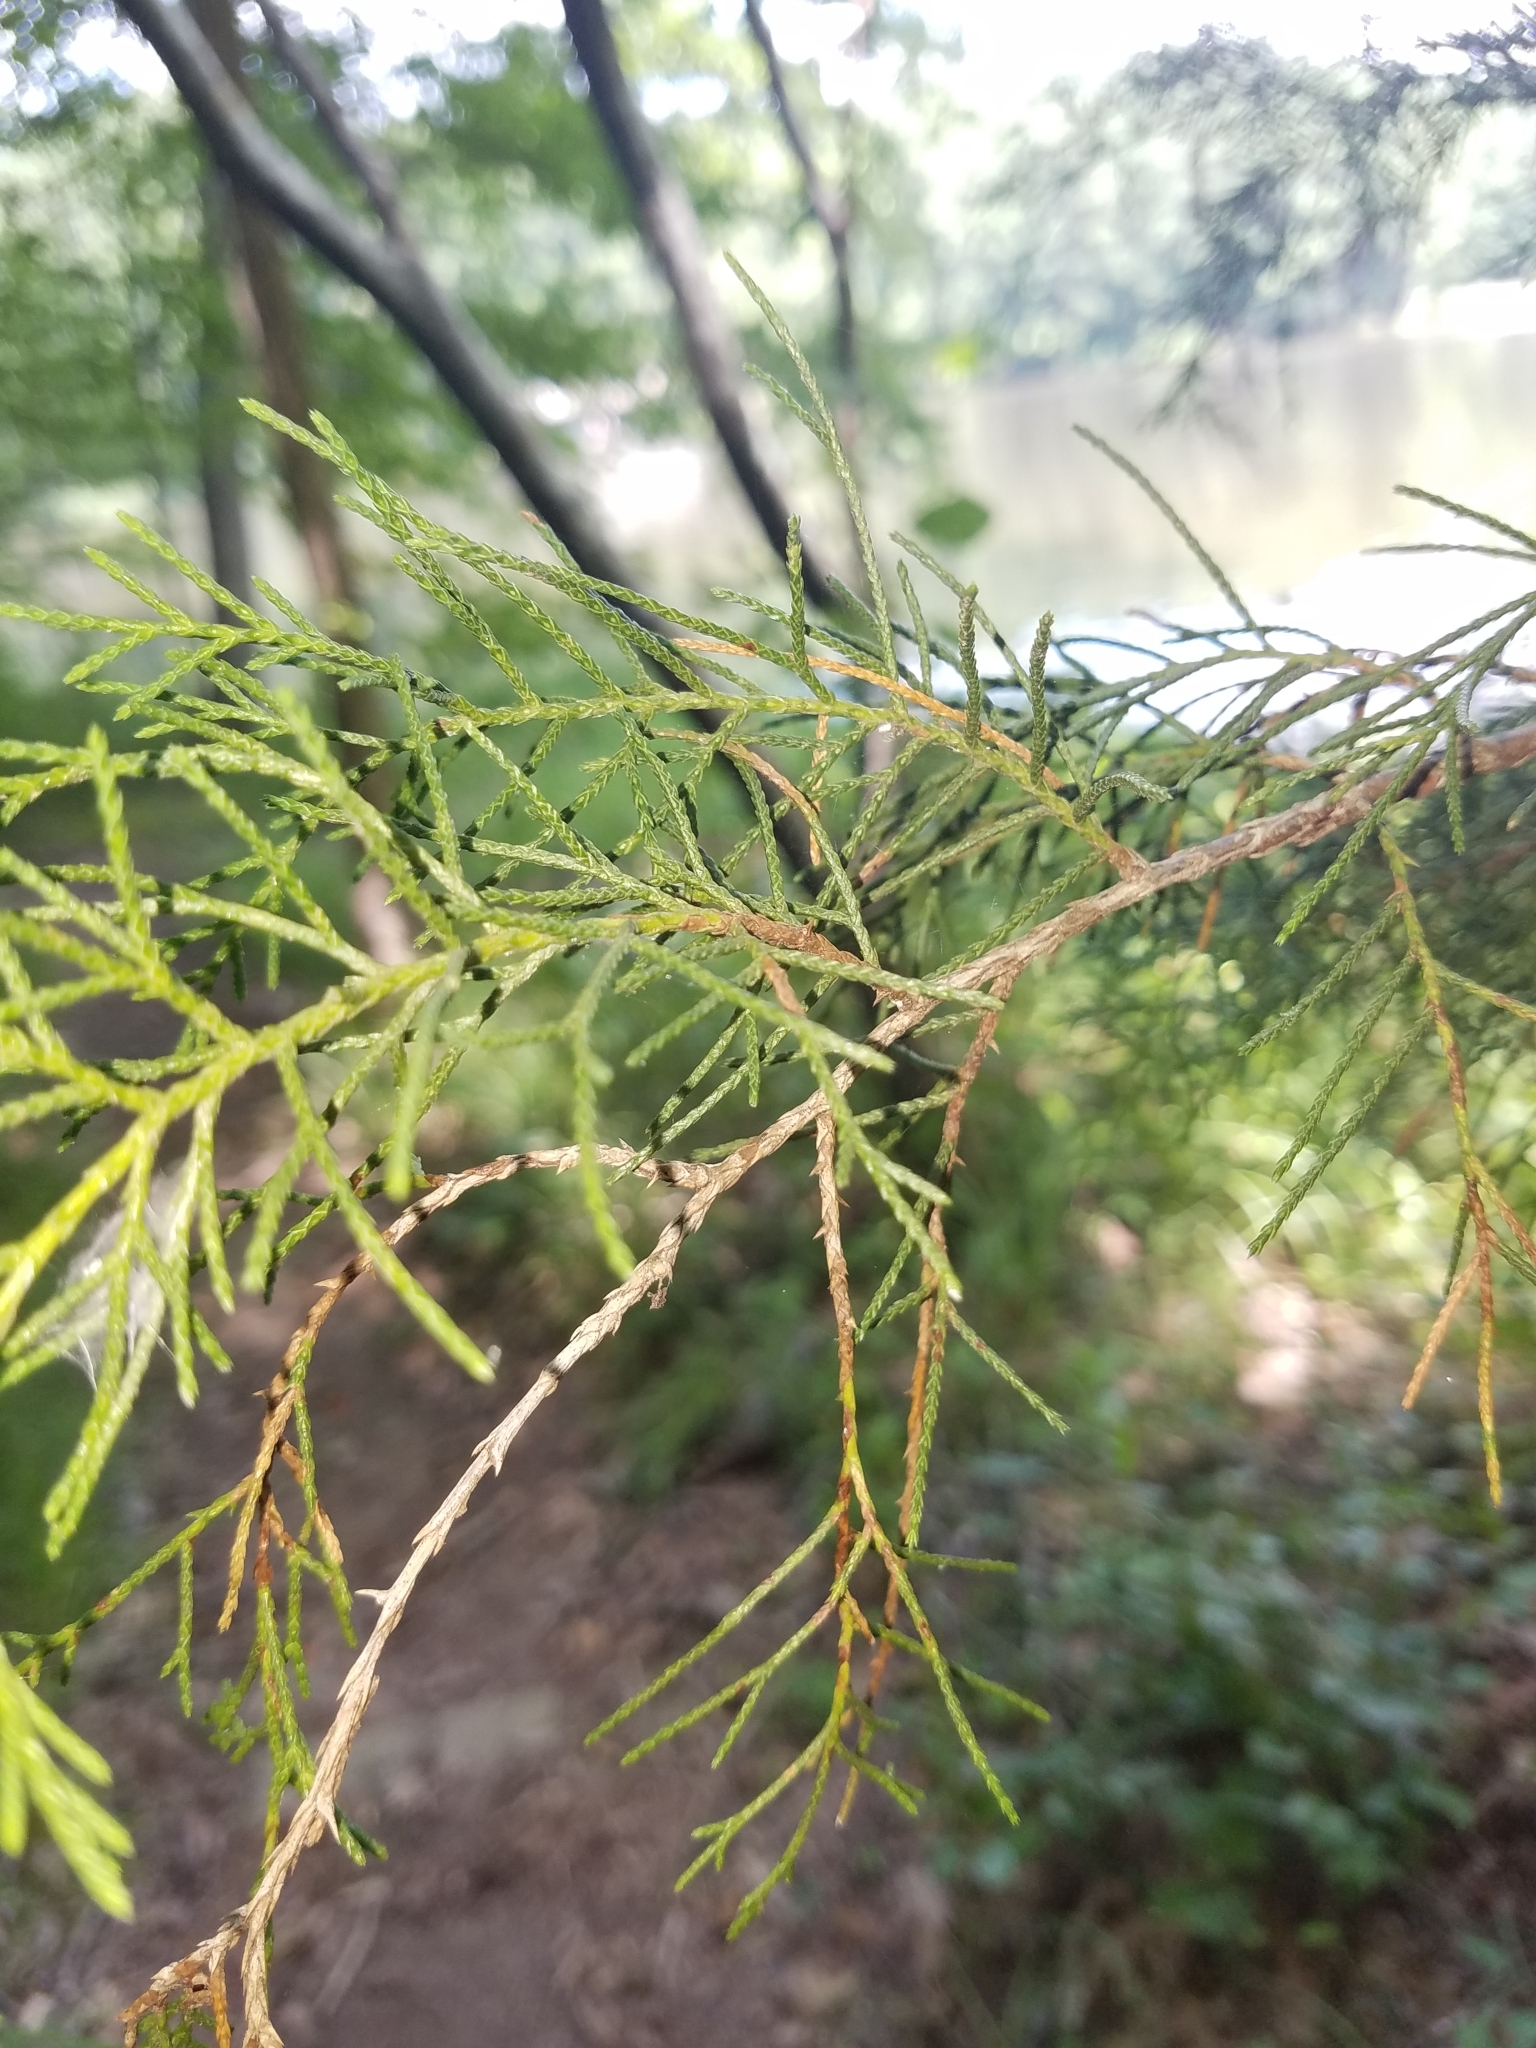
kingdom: Plantae
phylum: Tracheophyta
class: Pinopsida
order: Pinales
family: Cupressaceae
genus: Juniperus
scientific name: Juniperus virginiana
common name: Red juniper
